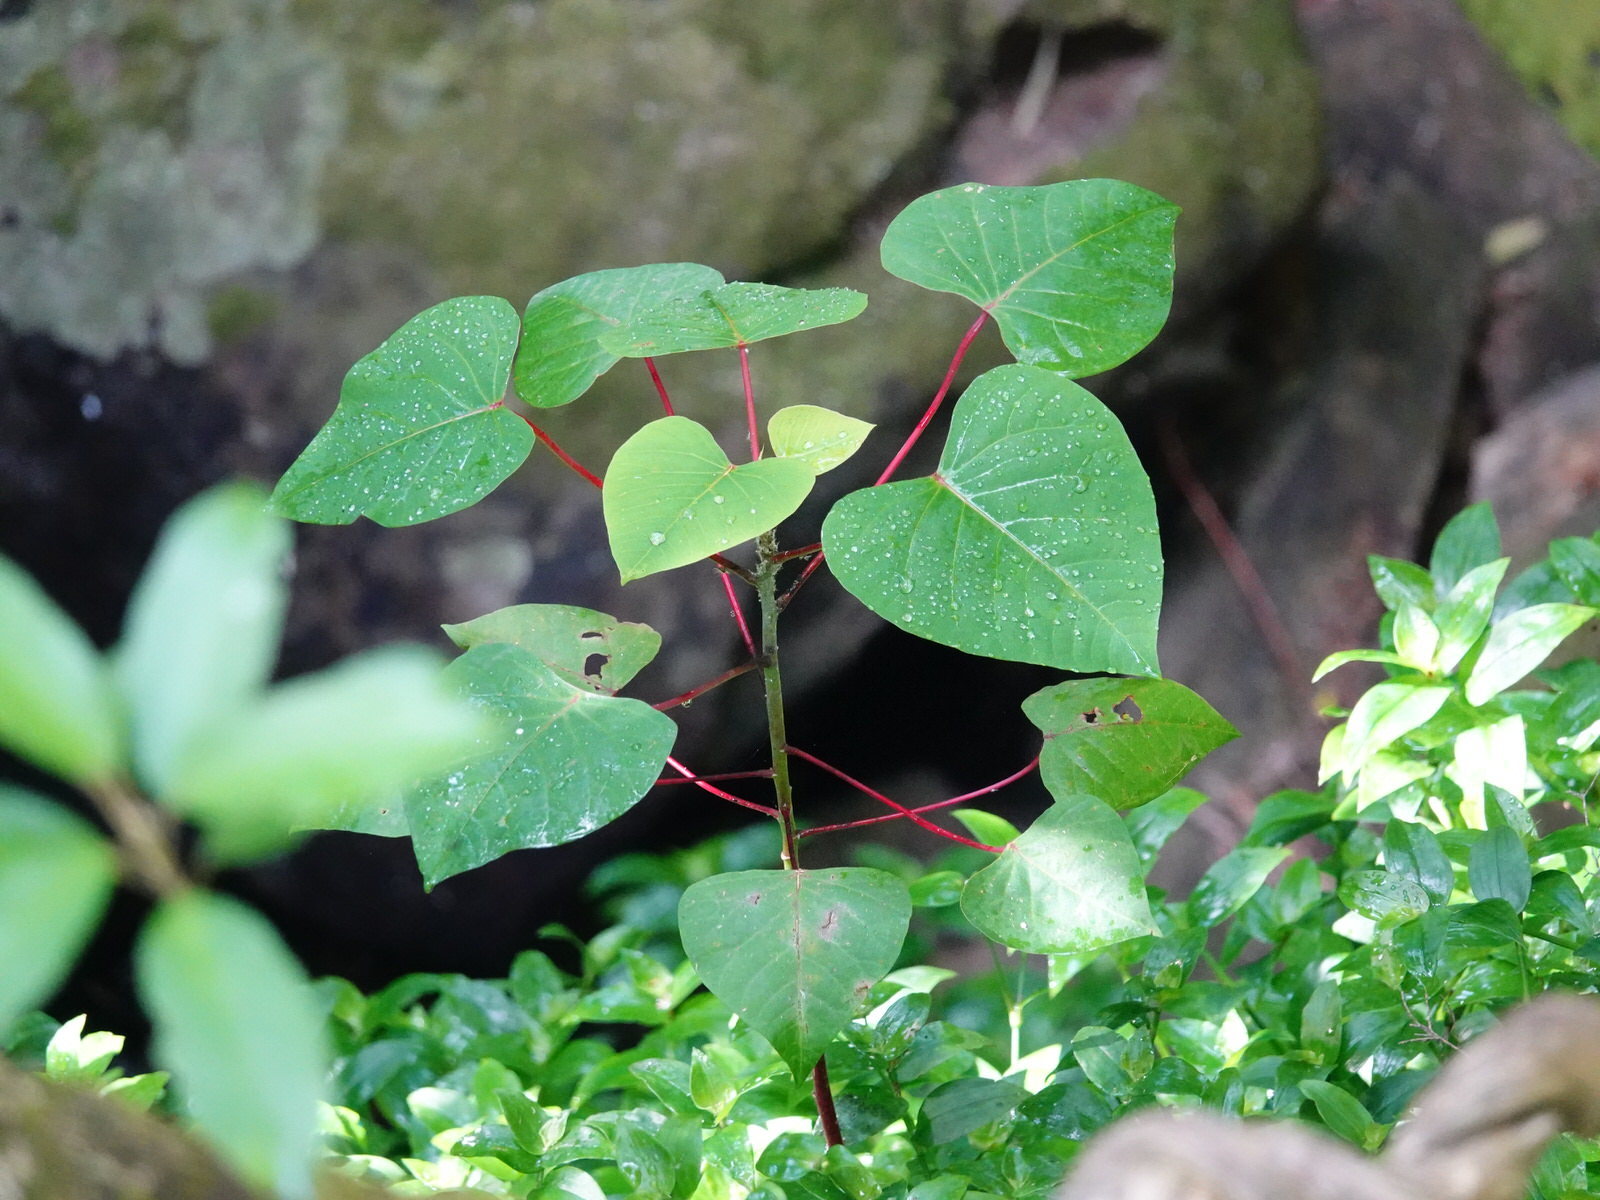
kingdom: Plantae
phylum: Tracheophyta
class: Magnoliopsida
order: Malpighiales
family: Euphorbiaceae
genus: Homalanthus
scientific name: Homalanthus populifolius
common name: Queensland poplar
